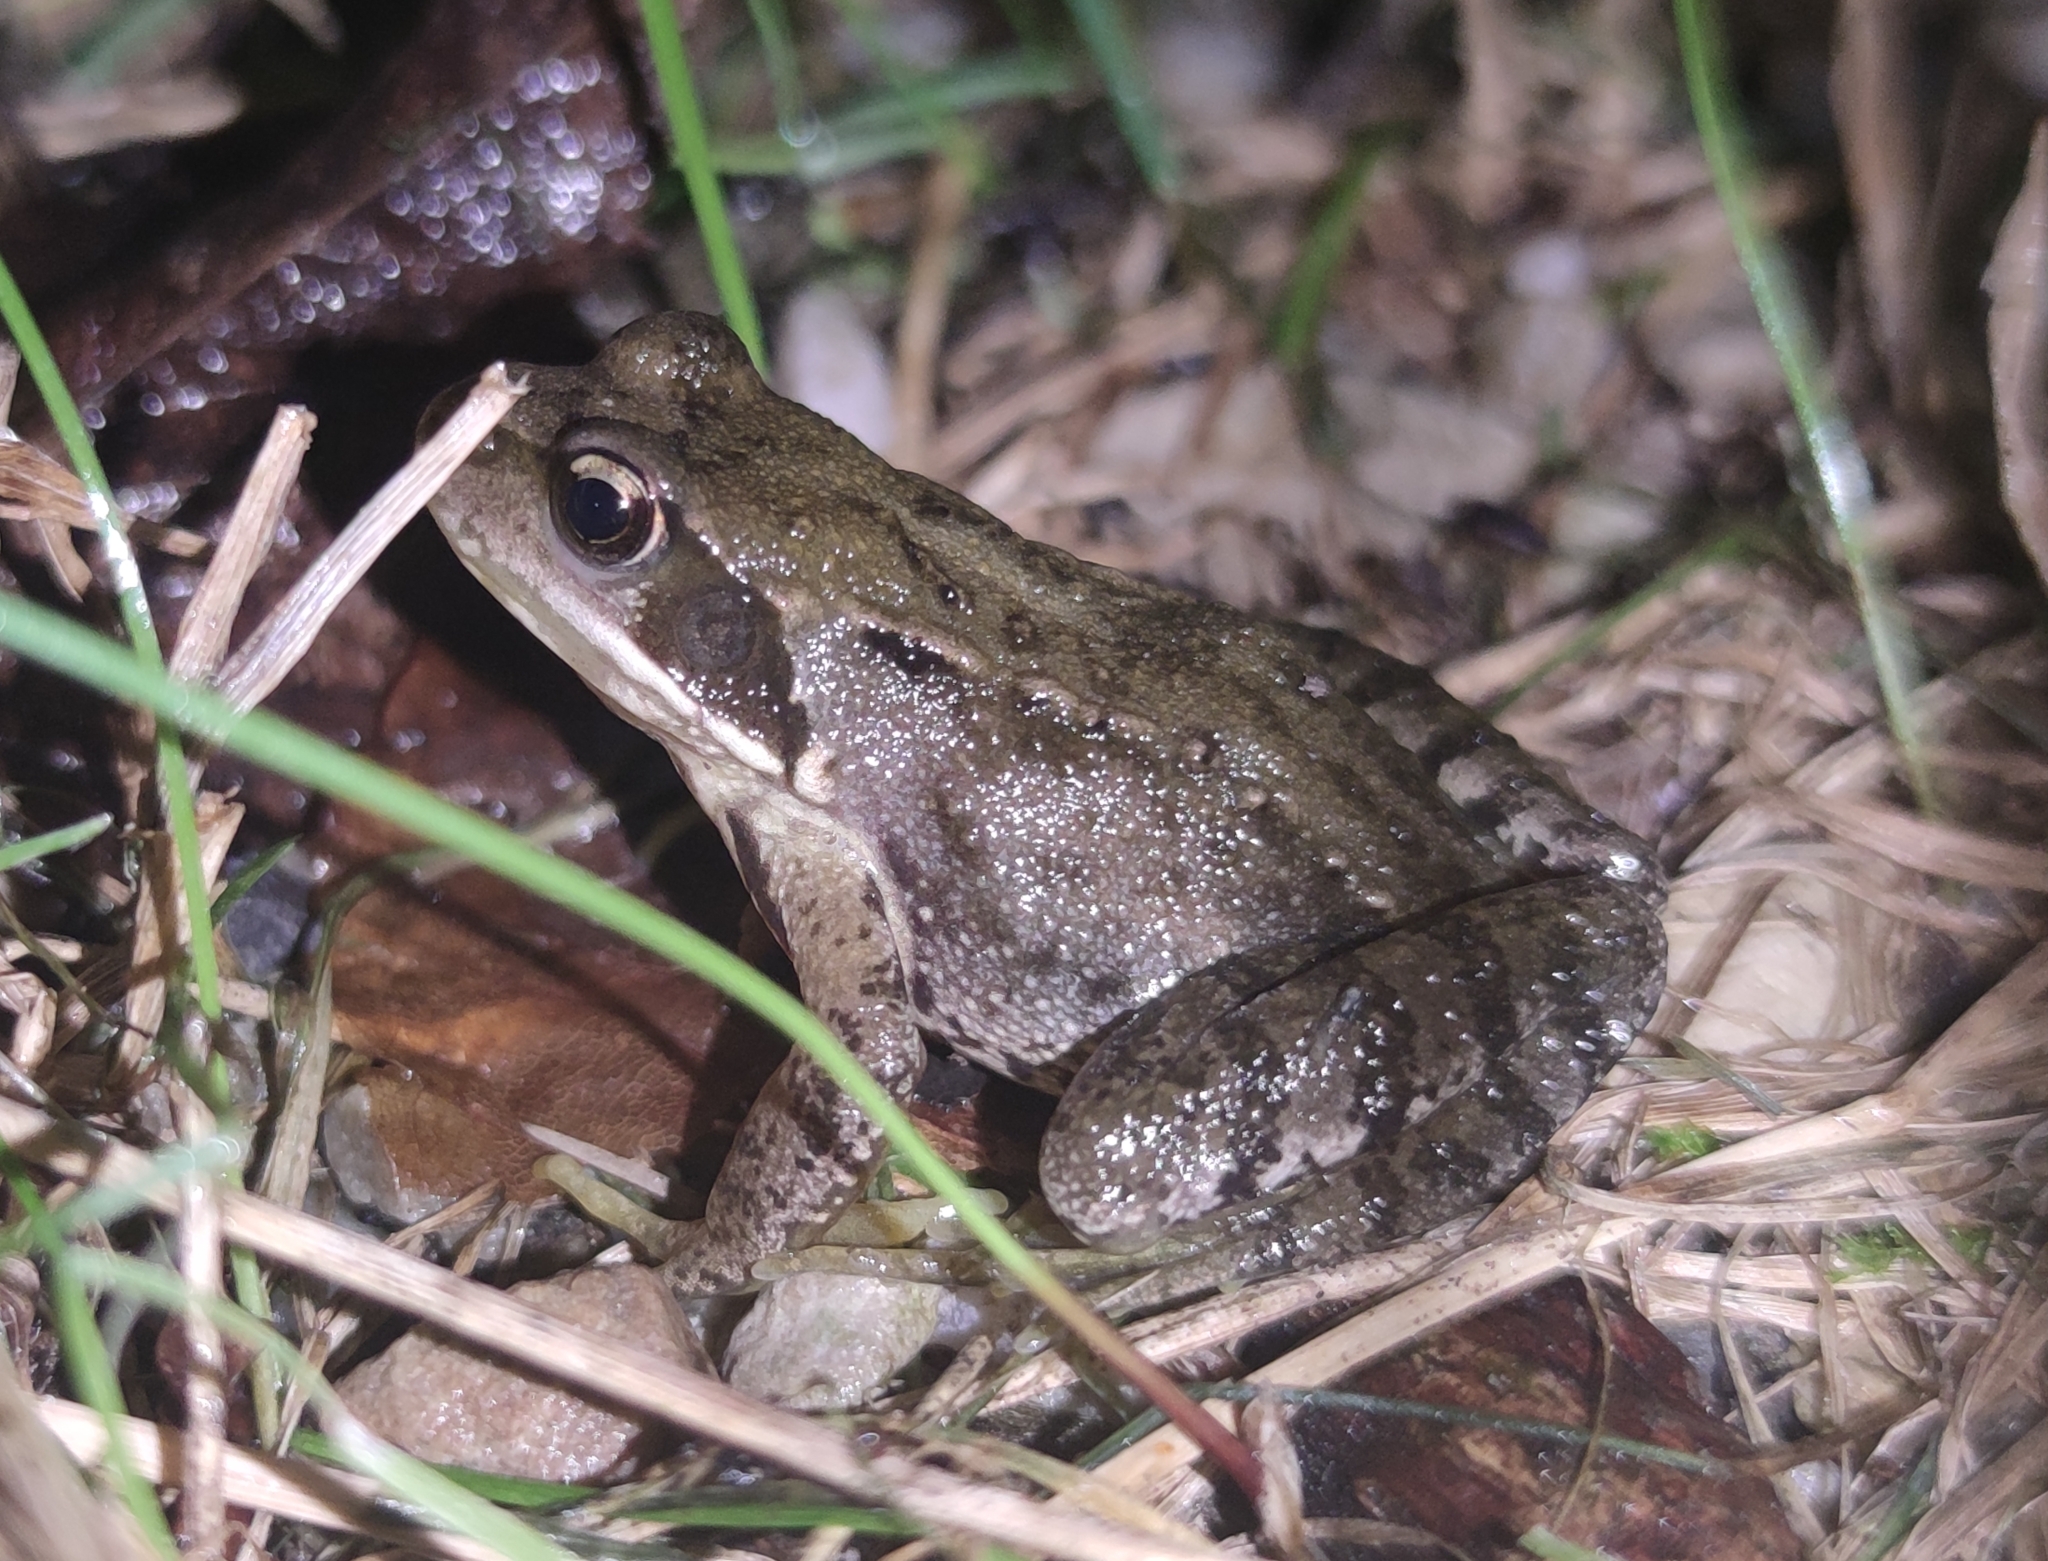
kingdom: Animalia
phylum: Chordata
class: Amphibia
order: Anura
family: Ranidae
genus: Rana
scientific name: Rana temporaria
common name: Common frog
